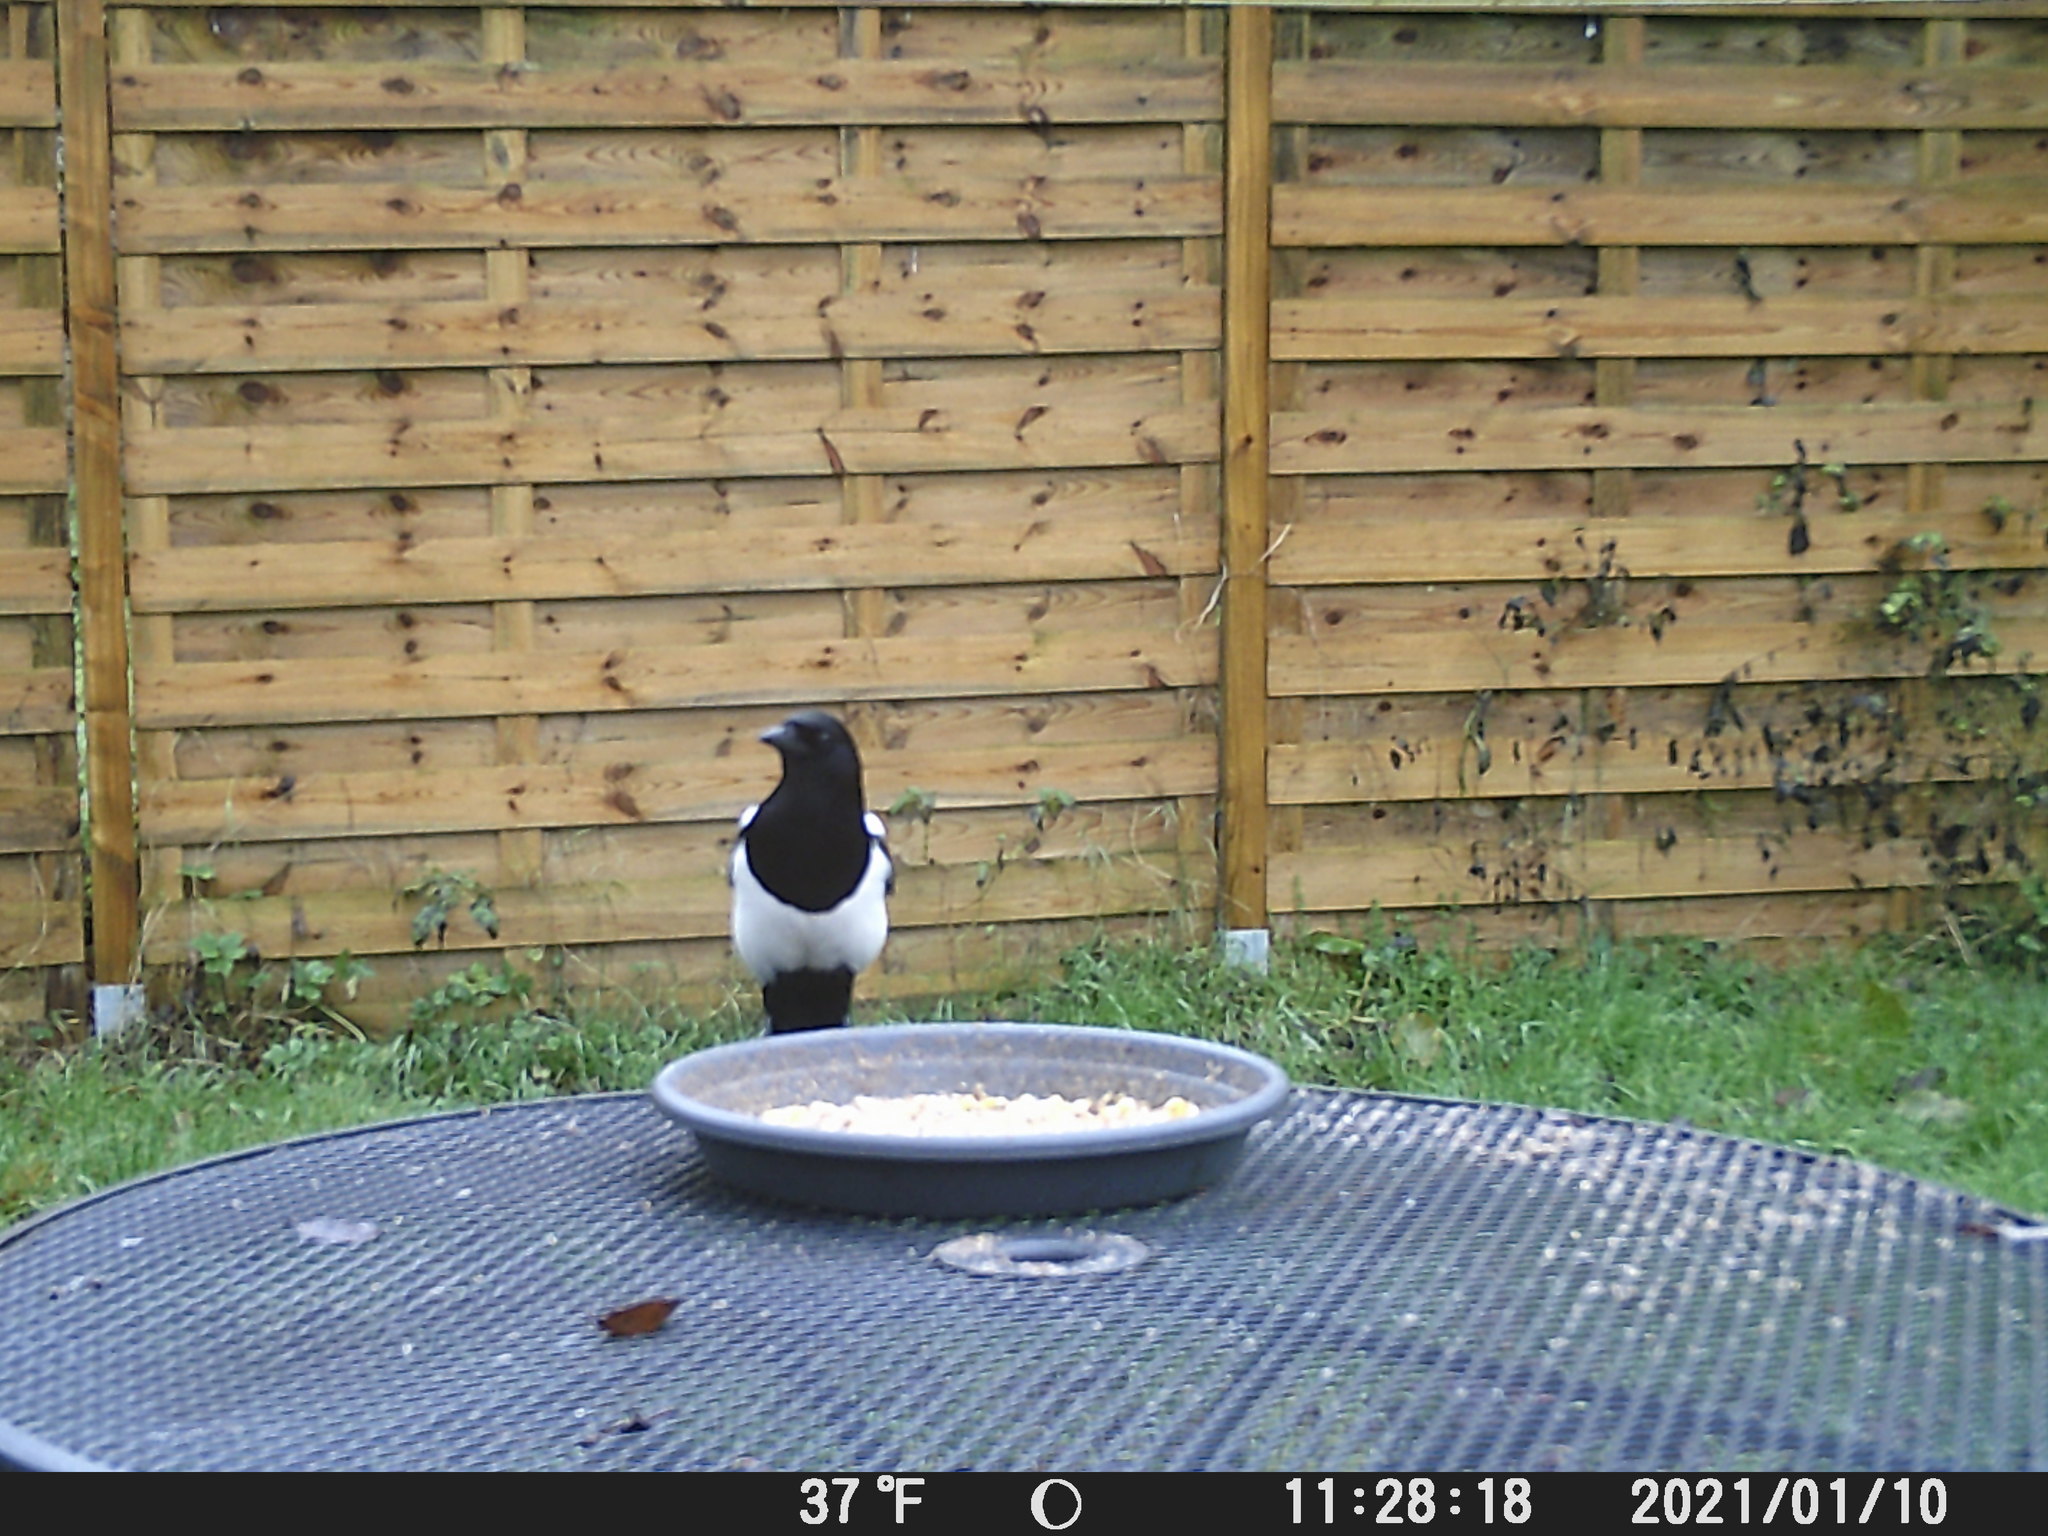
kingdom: Animalia
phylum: Chordata
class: Aves
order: Passeriformes
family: Corvidae
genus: Pica
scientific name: Pica pica
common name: Eurasian magpie
